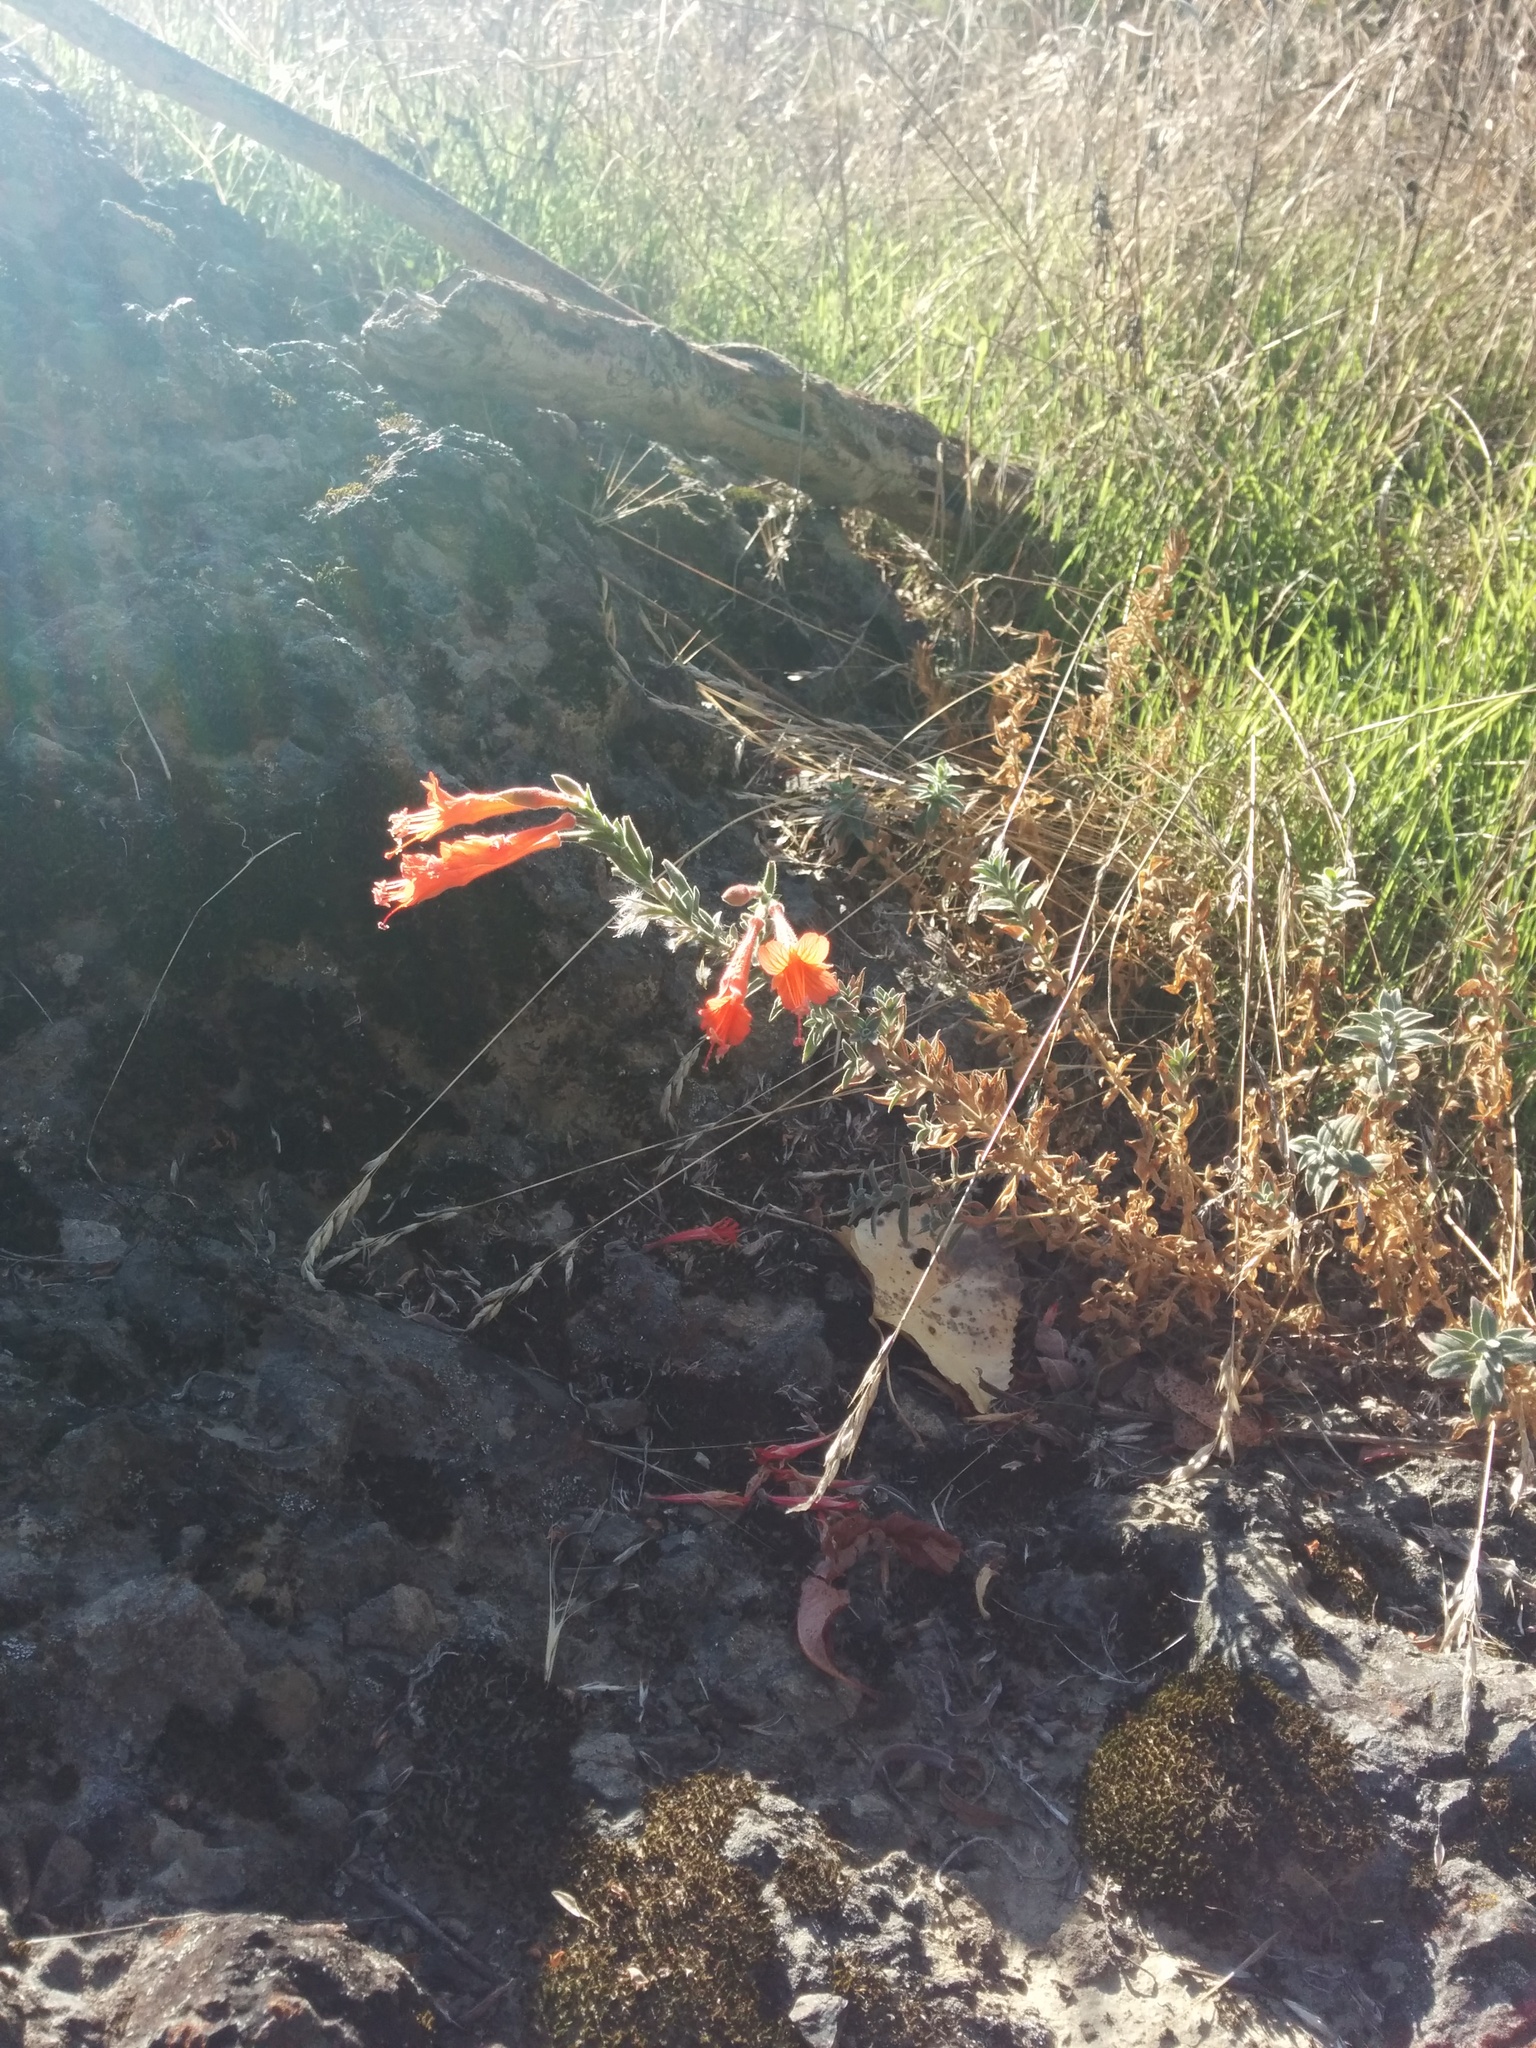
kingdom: Plantae
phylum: Tracheophyta
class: Magnoliopsida
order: Myrtales
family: Onagraceae
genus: Epilobium
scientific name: Epilobium canum
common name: California-fuchsia
